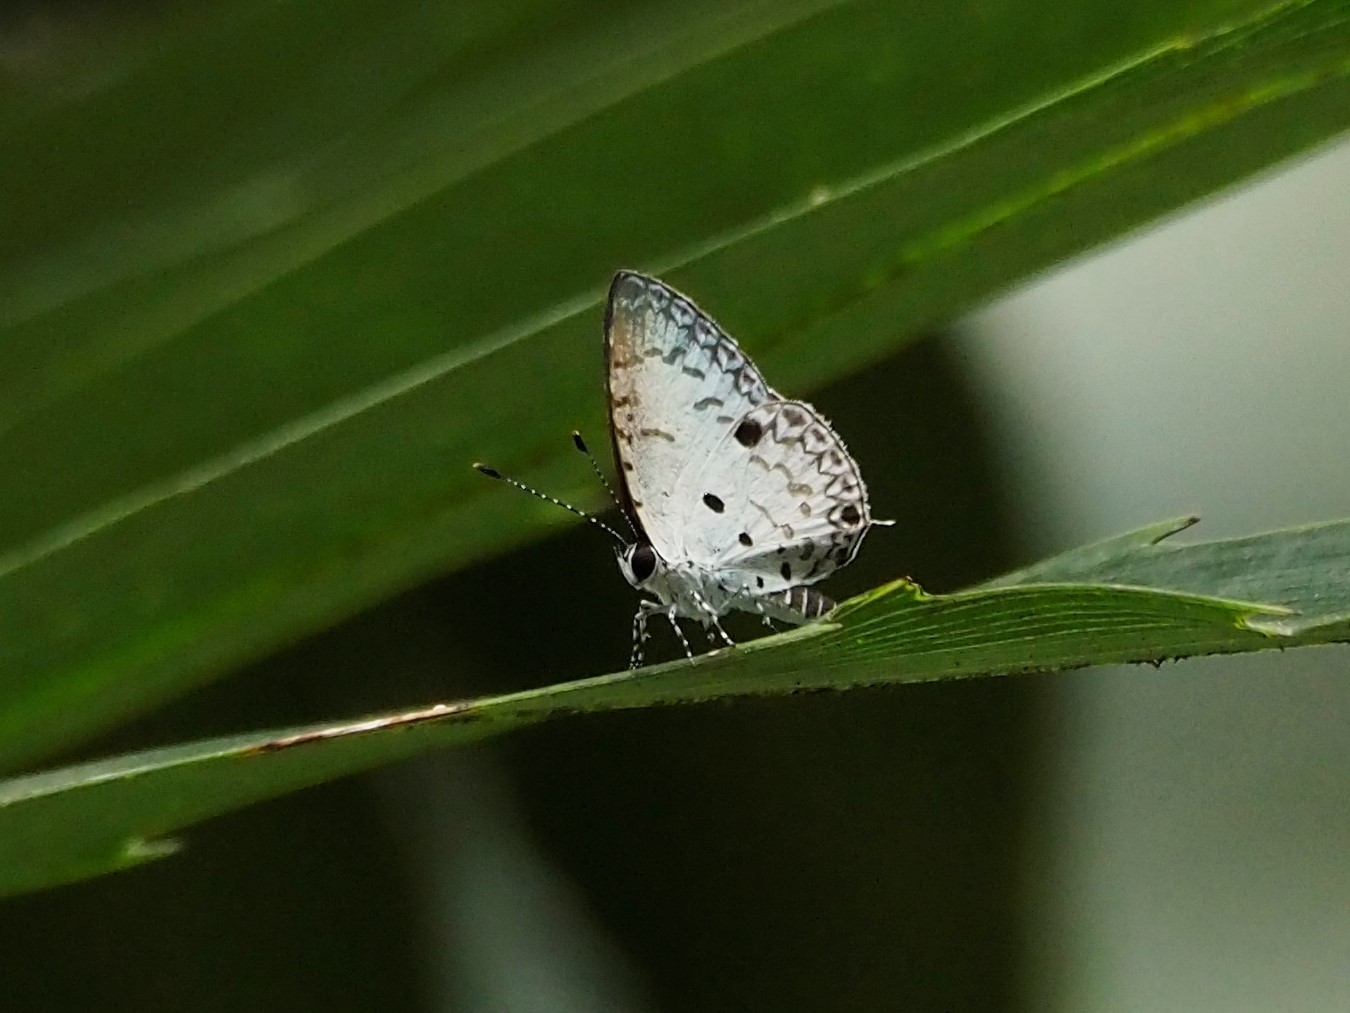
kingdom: Animalia
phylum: Arthropoda
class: Insecta
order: Lepidoptera
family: Lycaenidae
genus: Megisba
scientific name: Megisba malaya
